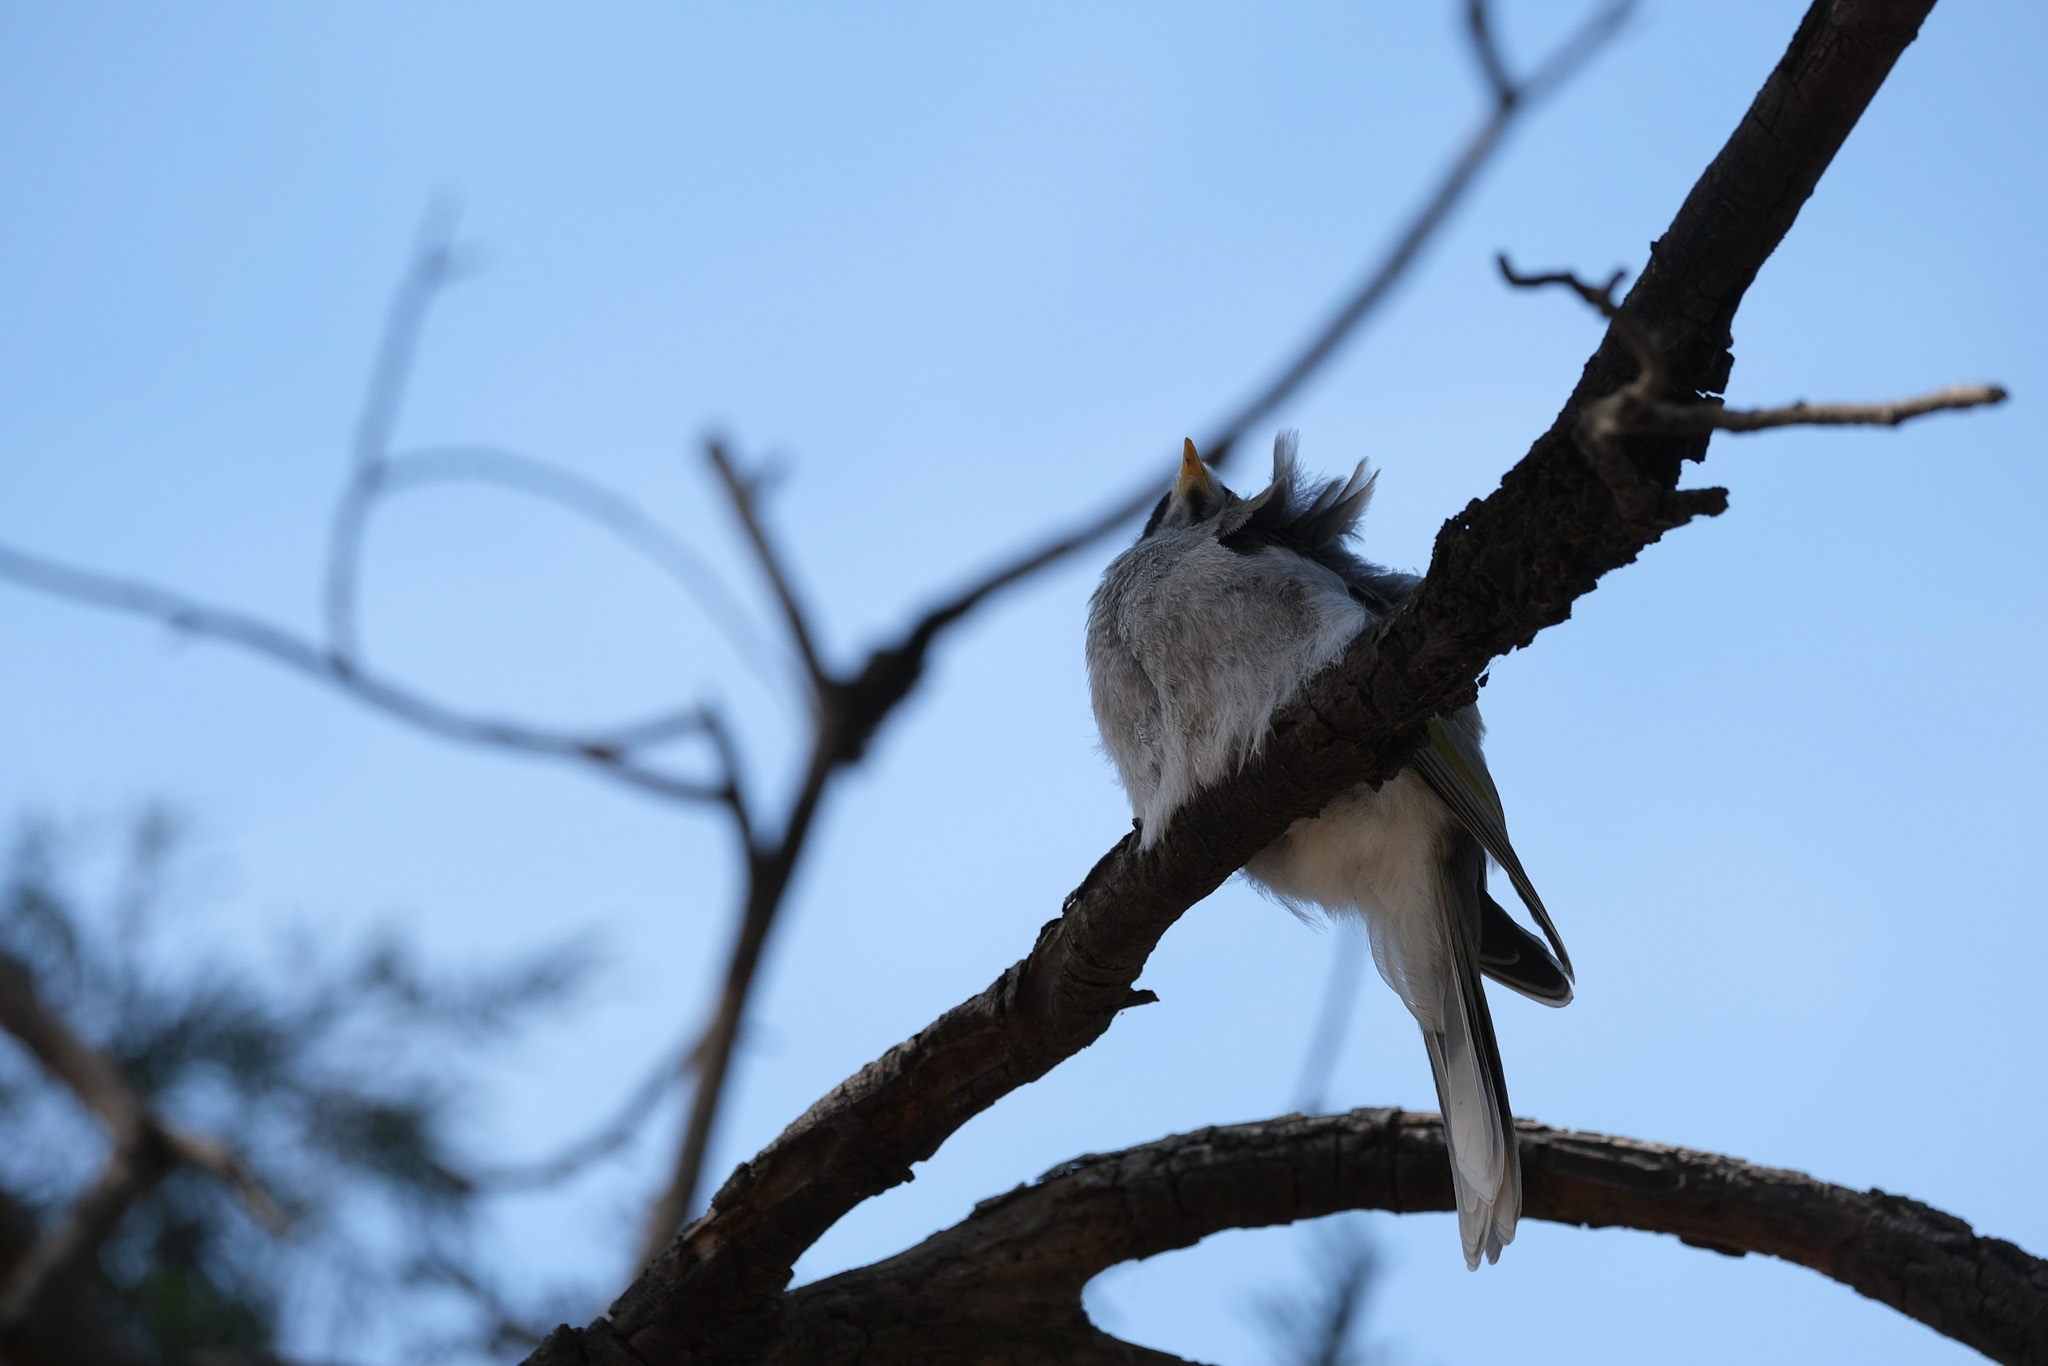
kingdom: Animalia
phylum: Chordata
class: Aves
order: Passeriformes
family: Meliphagidae
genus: Manorina
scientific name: Manorina melanocephala
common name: Noisy miner
